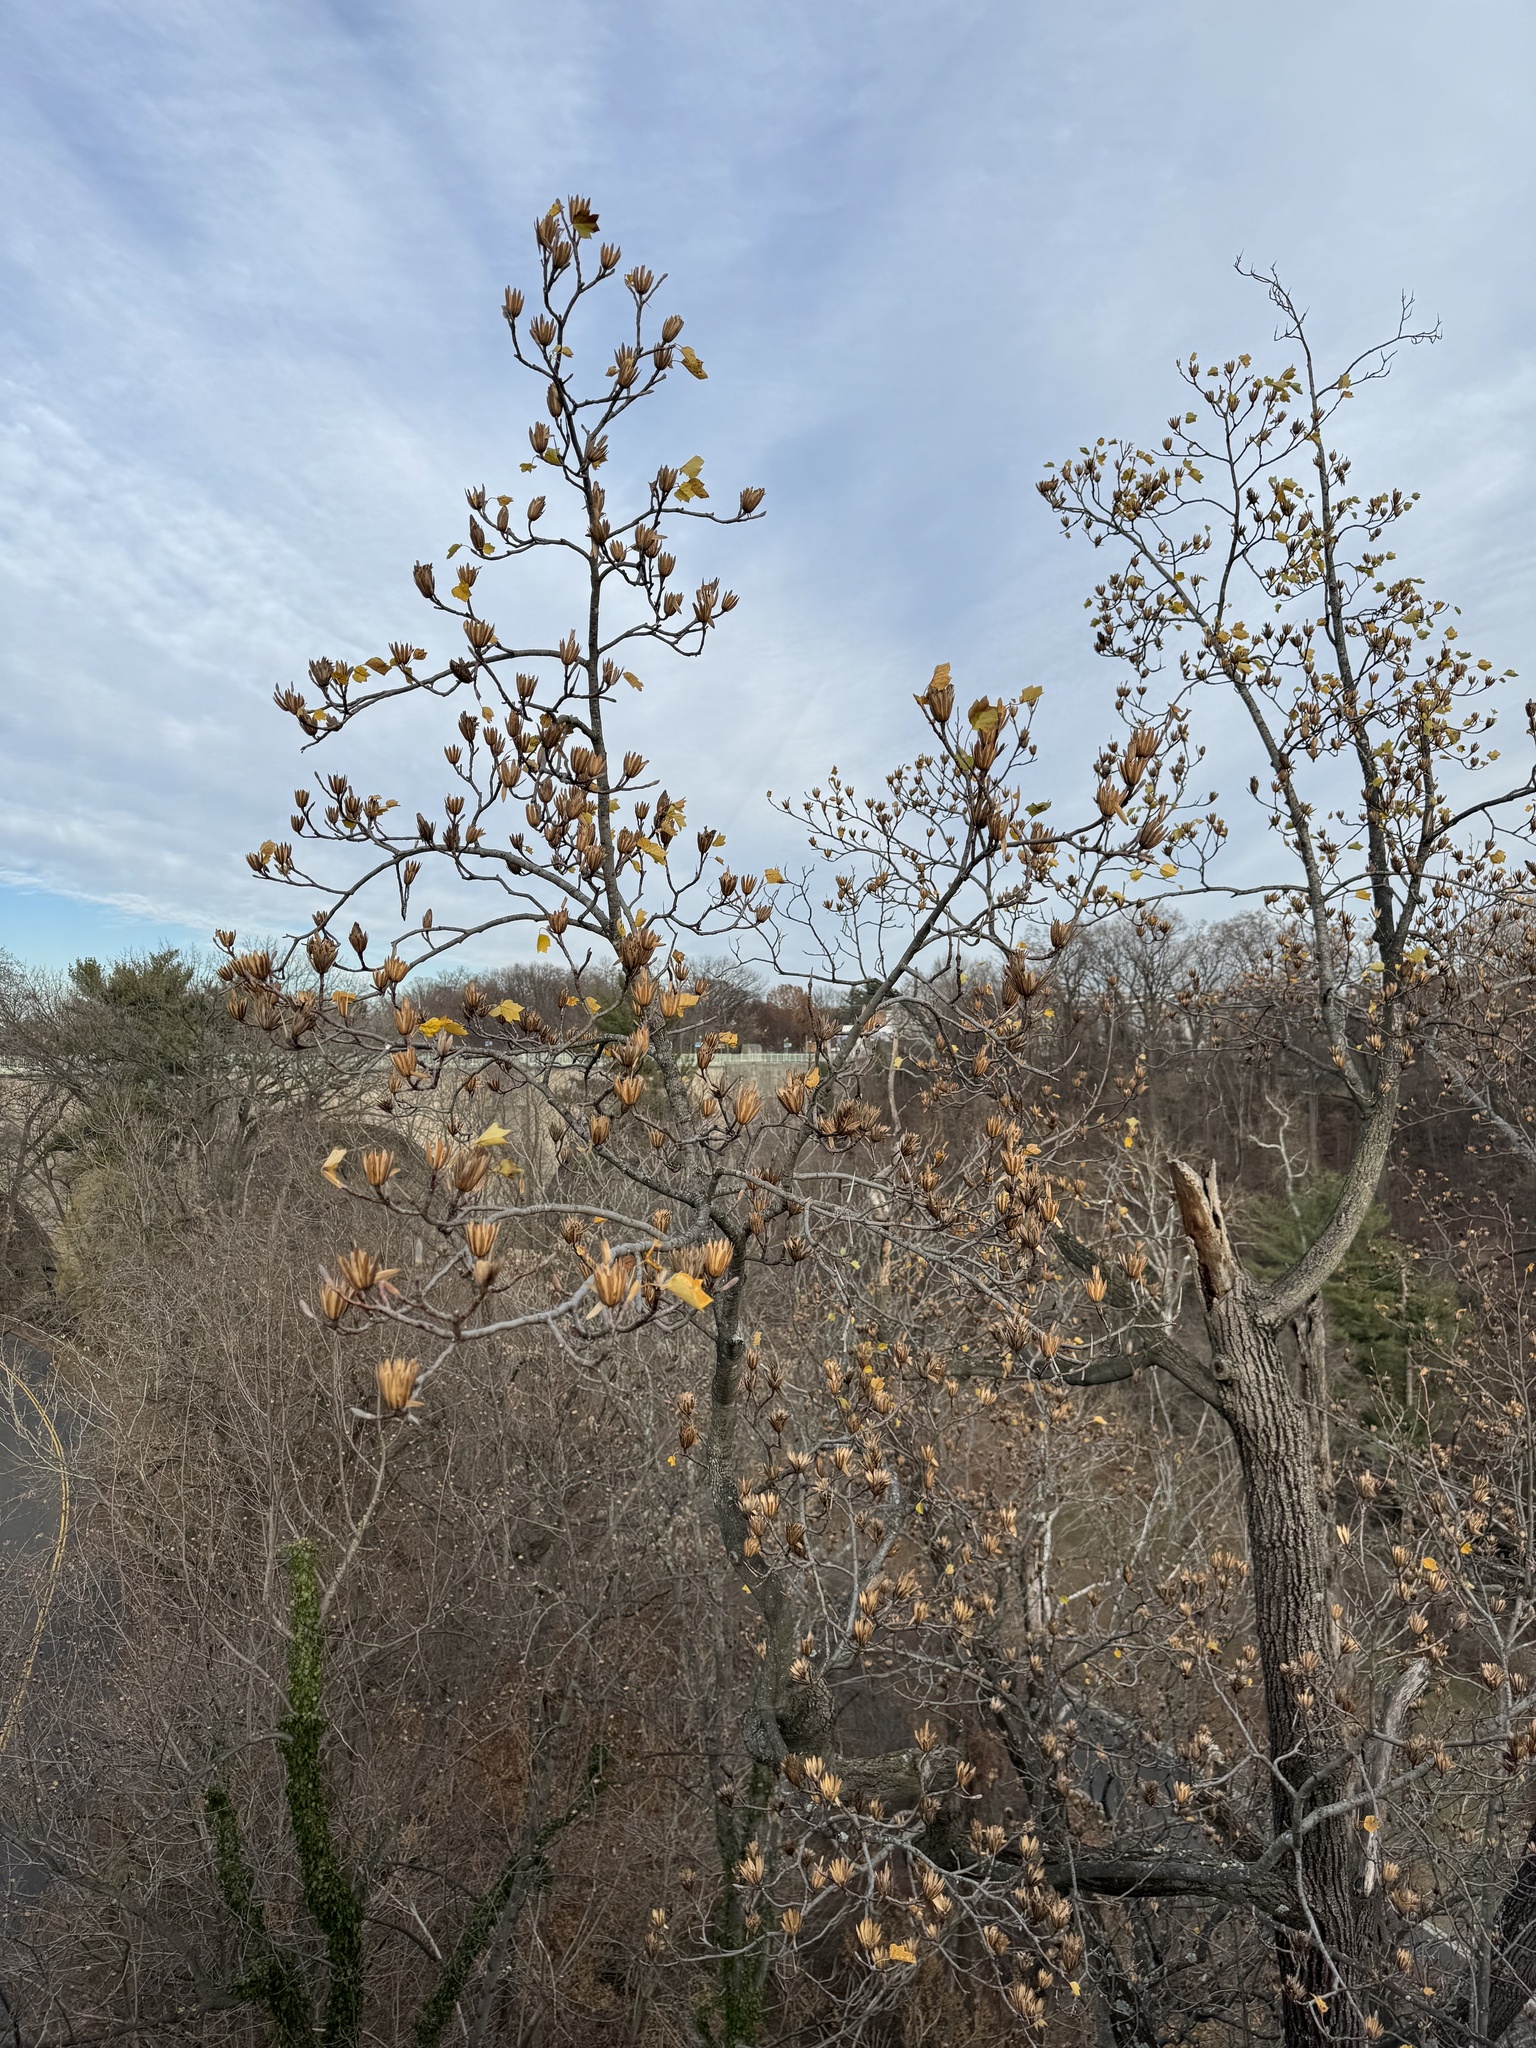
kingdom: Plantae
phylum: Tracheophyta
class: Magnoliopsida
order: Magnoliales
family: Magnoliaceae
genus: Liriodendron
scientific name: Liriodendron tulipifera
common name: Tulip tree
